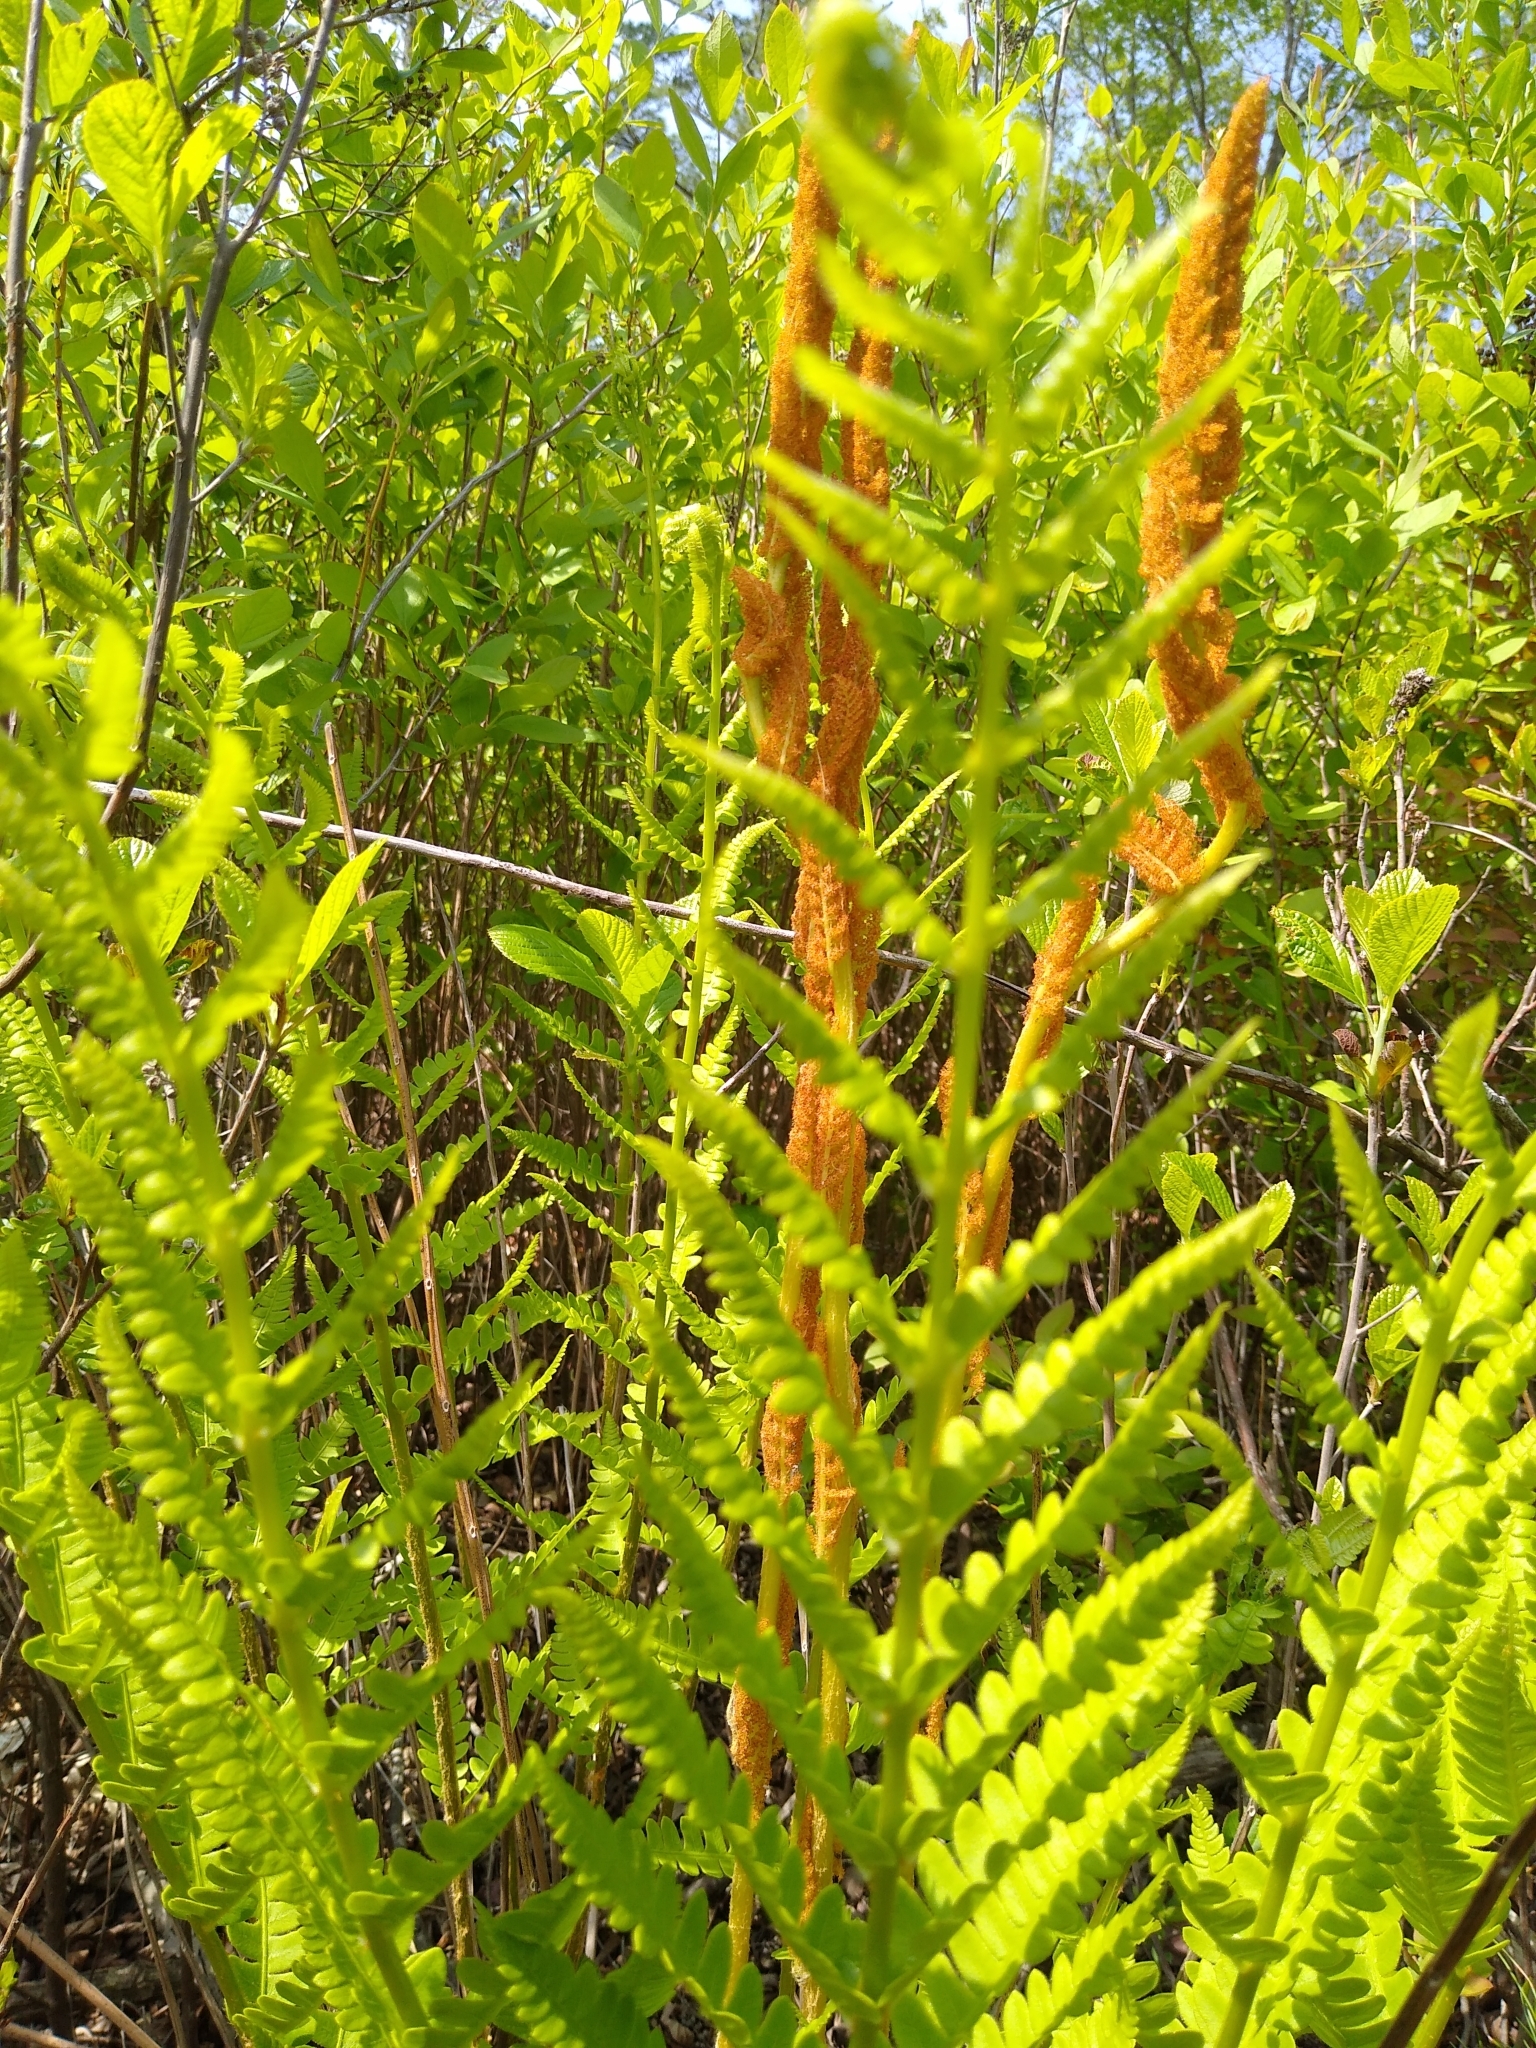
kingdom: Plantae
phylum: Tracheophyta
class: Polypodiopsida
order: Osmundales
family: Osmundaceae
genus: Osmundastrum
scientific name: Osmundastrum cinnamomeum
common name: Cinnamon fern
